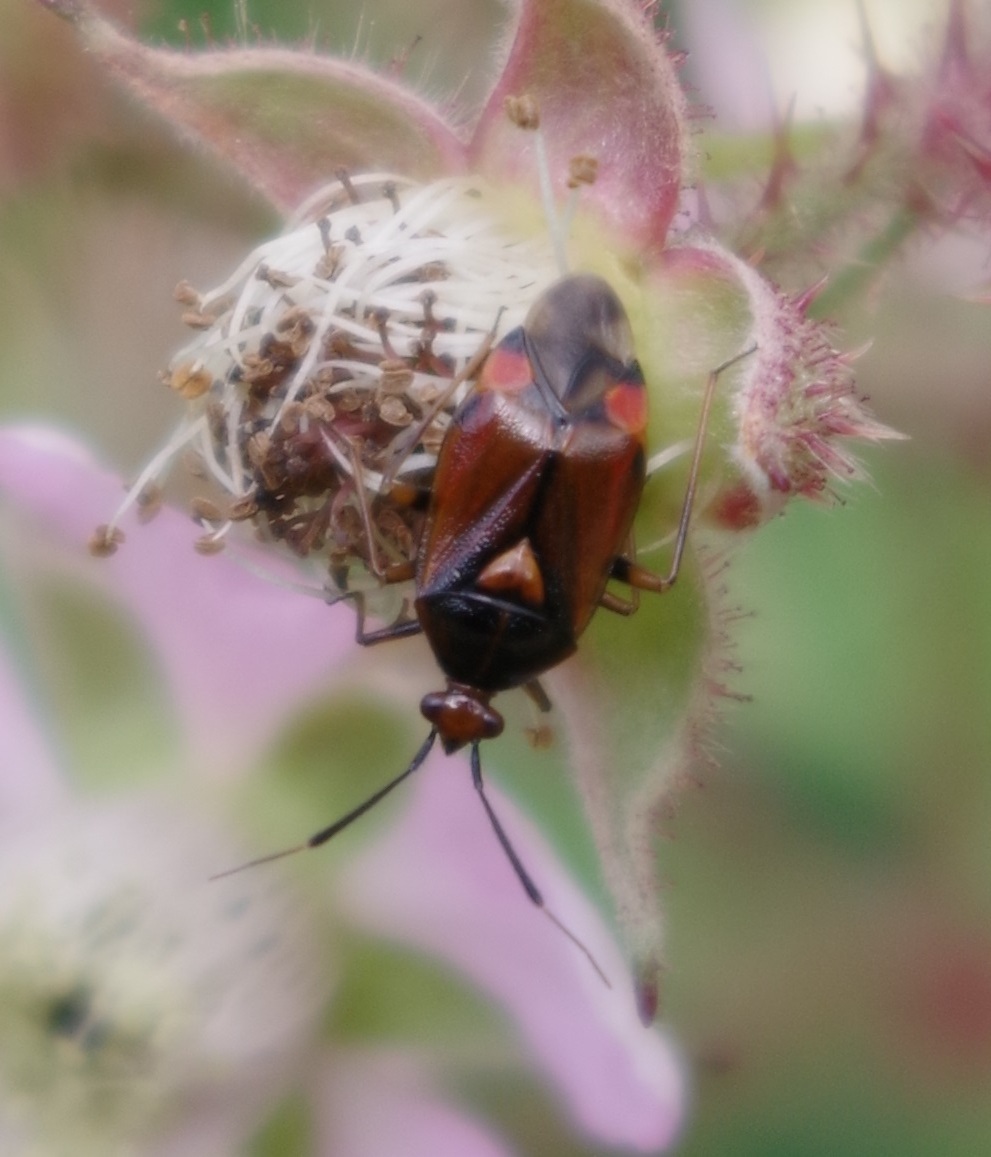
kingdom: Animalia
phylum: Arthropoda
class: Insecta
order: Hemiptera
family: Miridae
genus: Deraeocoris
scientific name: Deraeocoris ruber
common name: Plant bug
